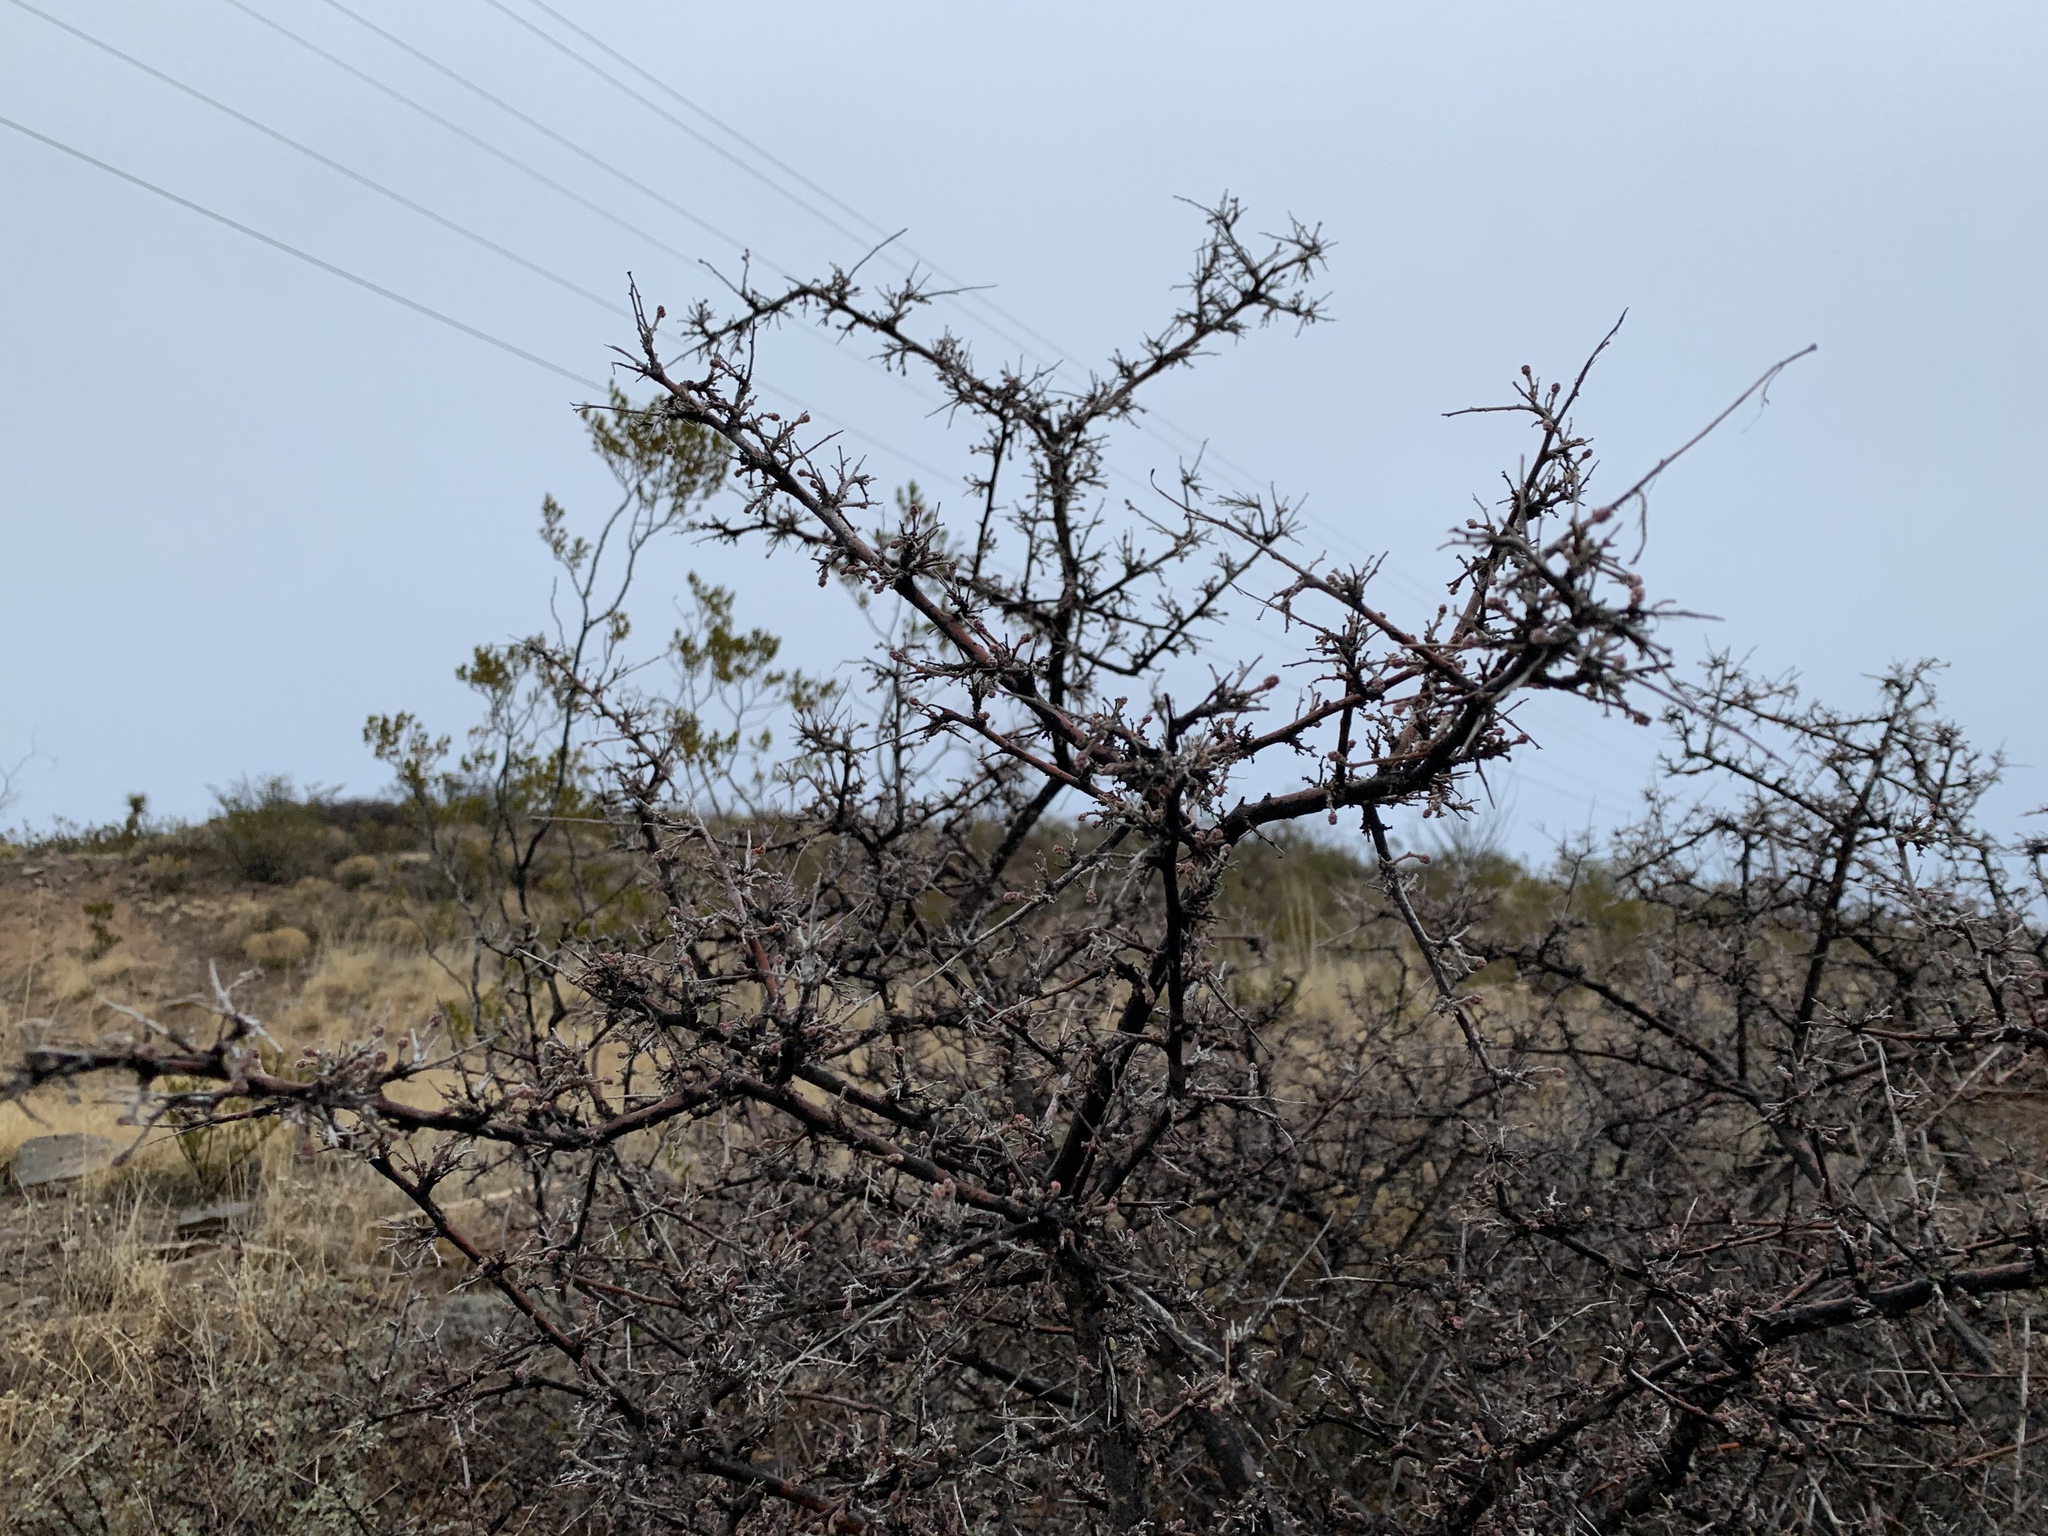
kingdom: Plantae
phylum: Tracheophyta
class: Magnoliopsida
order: Sapindales
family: Anacardiaceae
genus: Rhus
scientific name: Rhus microphylla
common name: Desert sumac
